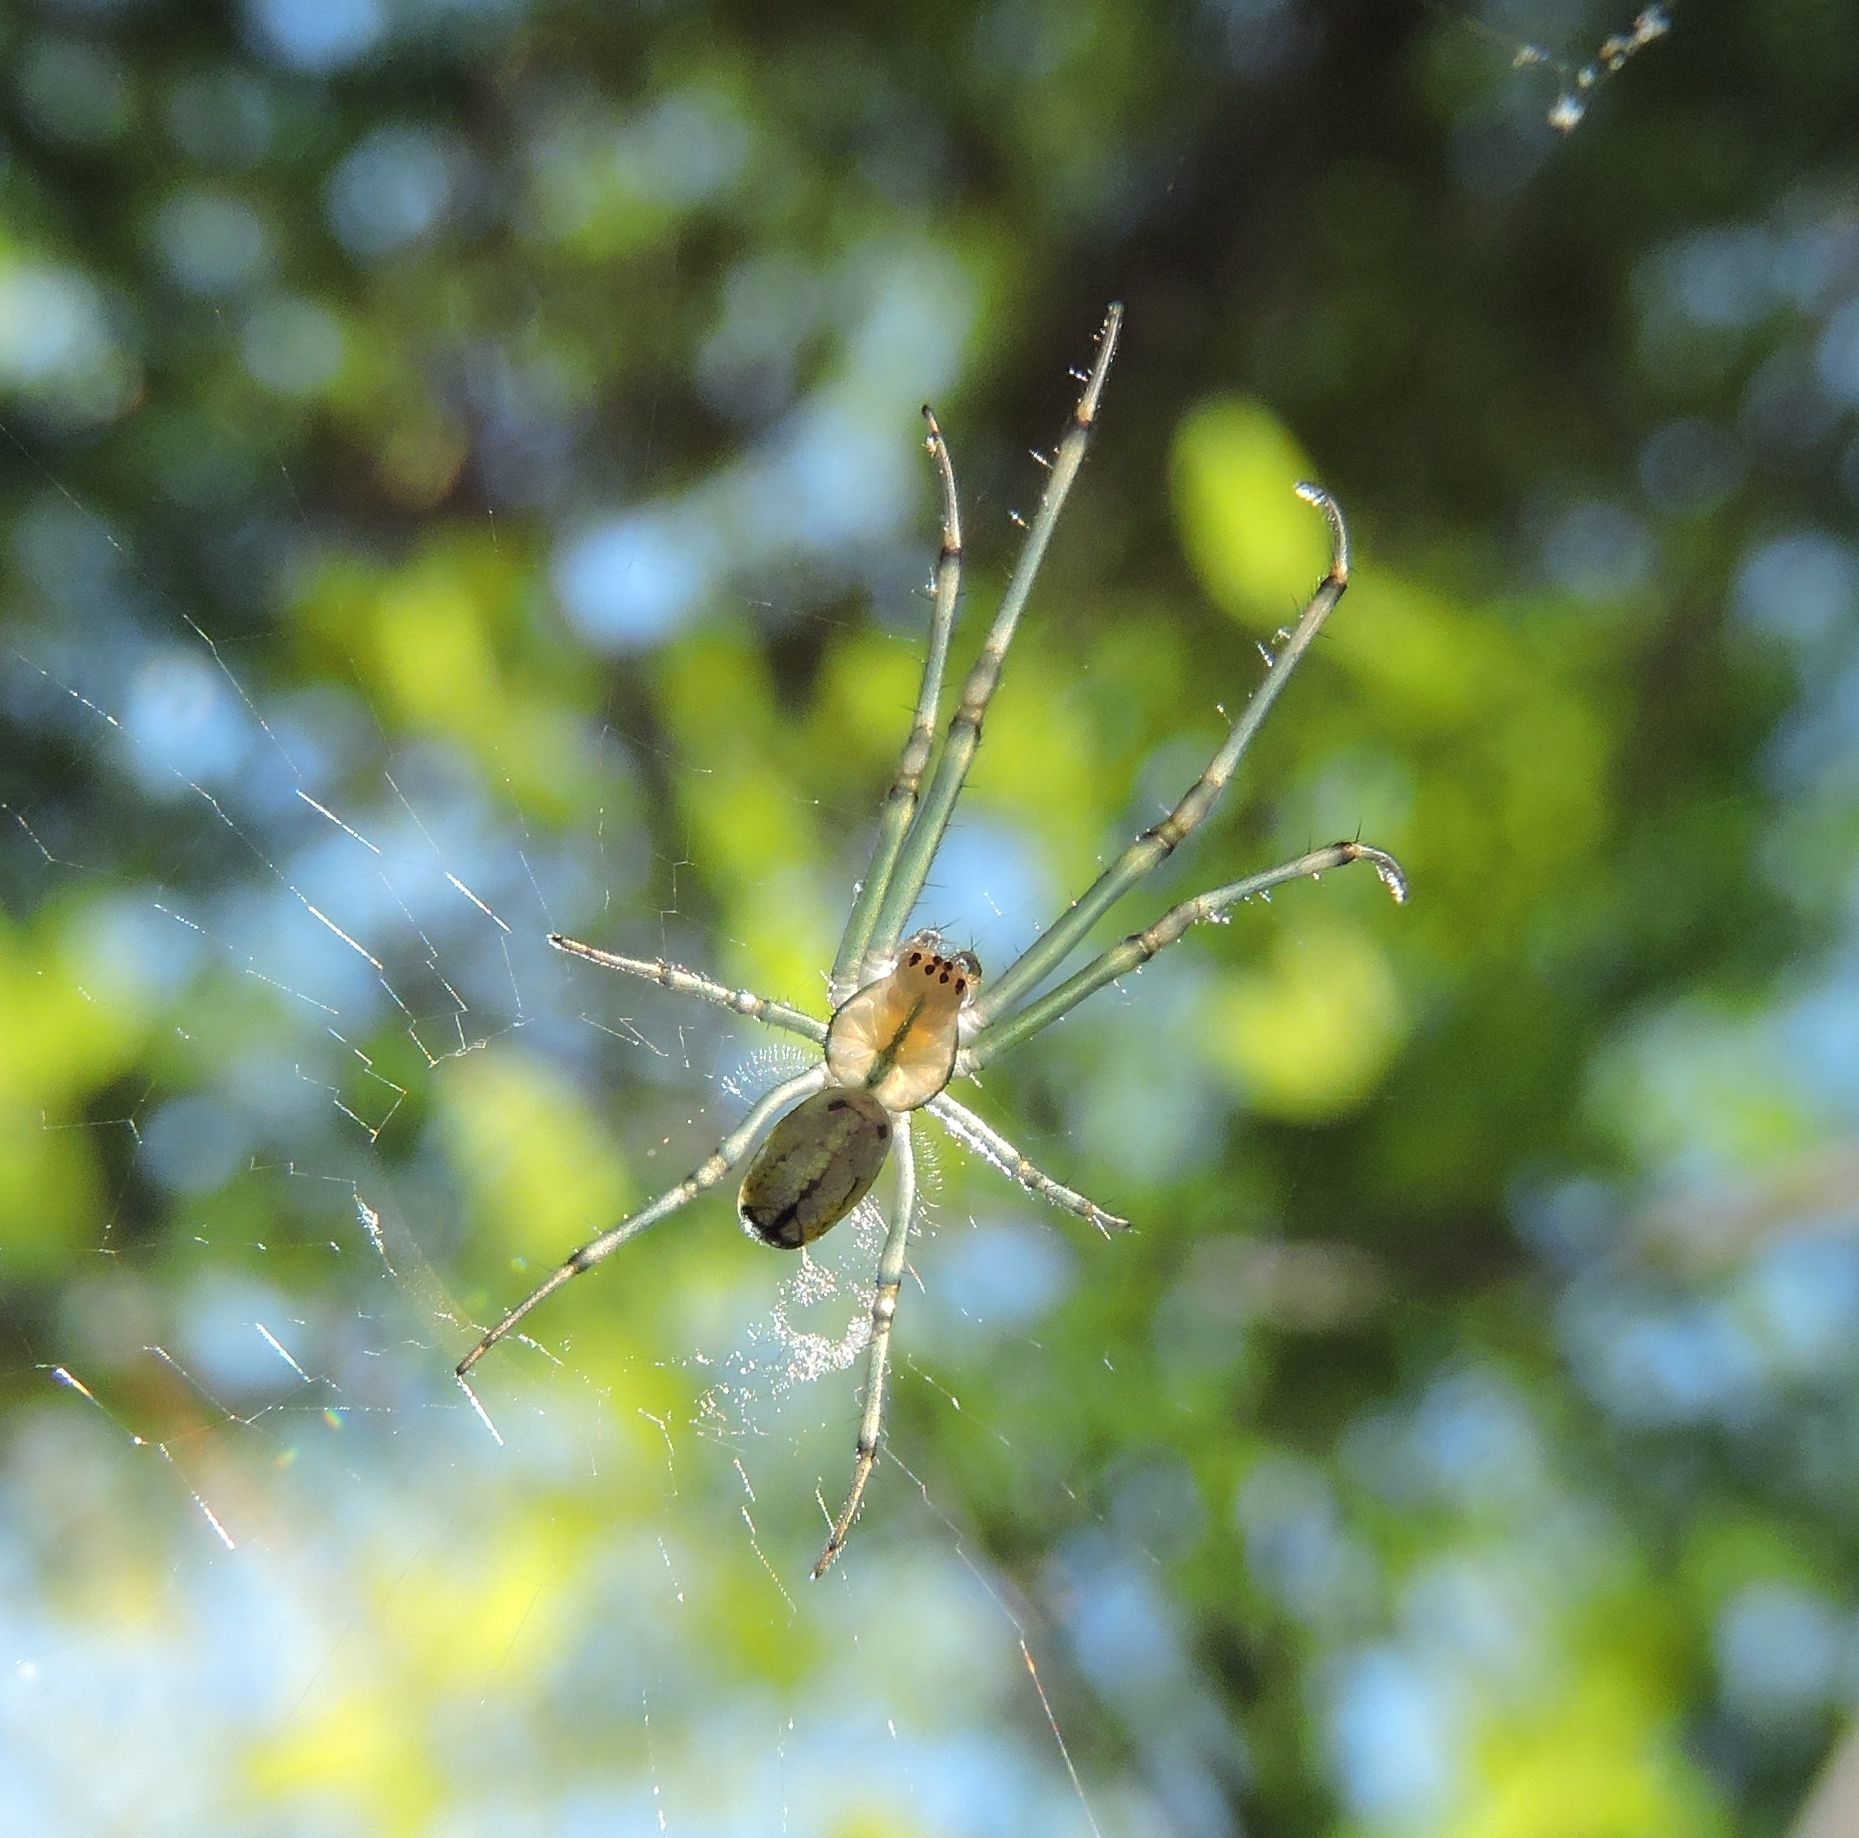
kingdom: Animalia
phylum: Arthropoda
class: Arachnida
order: Araneae
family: Tetragnathidae
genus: Leucauge
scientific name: Leucauge venusta
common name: Longjawed orb weavers
